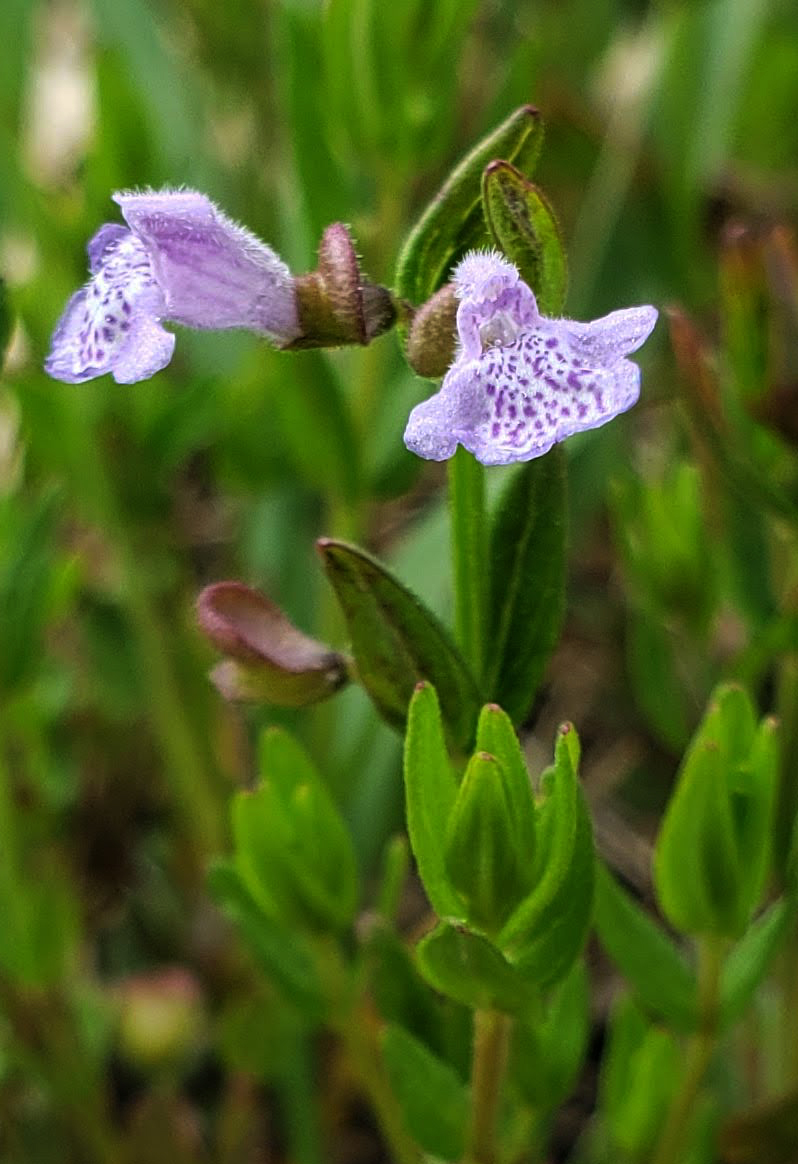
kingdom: Plantae
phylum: Tracheophyta
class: Magnoliopsida
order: Lamiales
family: Lamiaceae
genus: Scutellaria
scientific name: Scutellaria parvula
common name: Little scullcap
